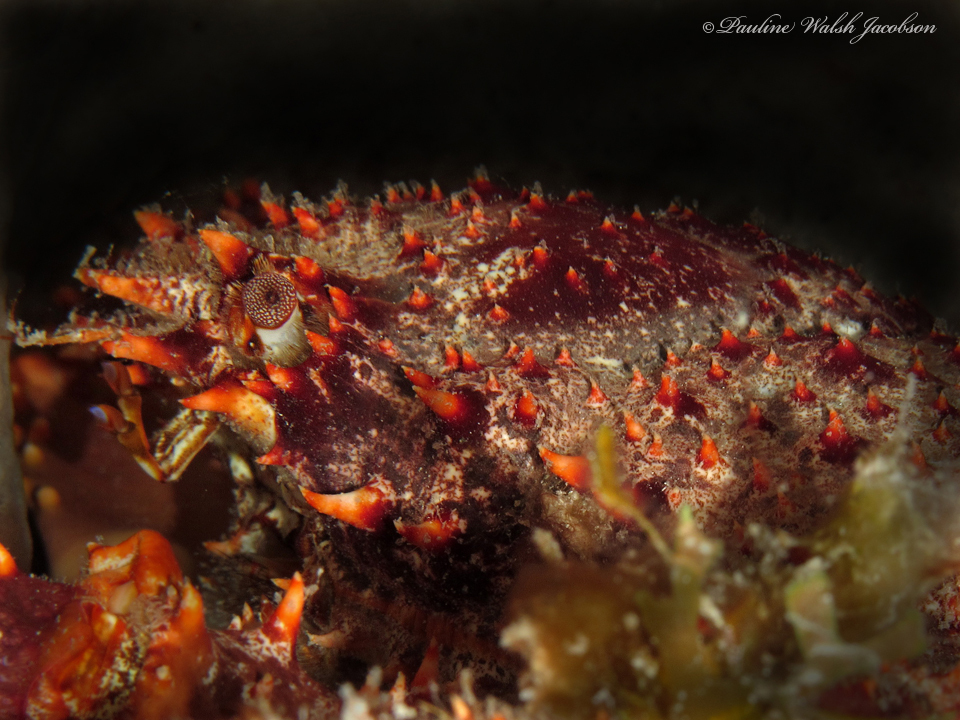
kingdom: Animalia
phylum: Arthropoda
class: Malacostraca
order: Decapoda
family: Mithracidae
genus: Amphithrax
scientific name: Amphithrax pilosus
